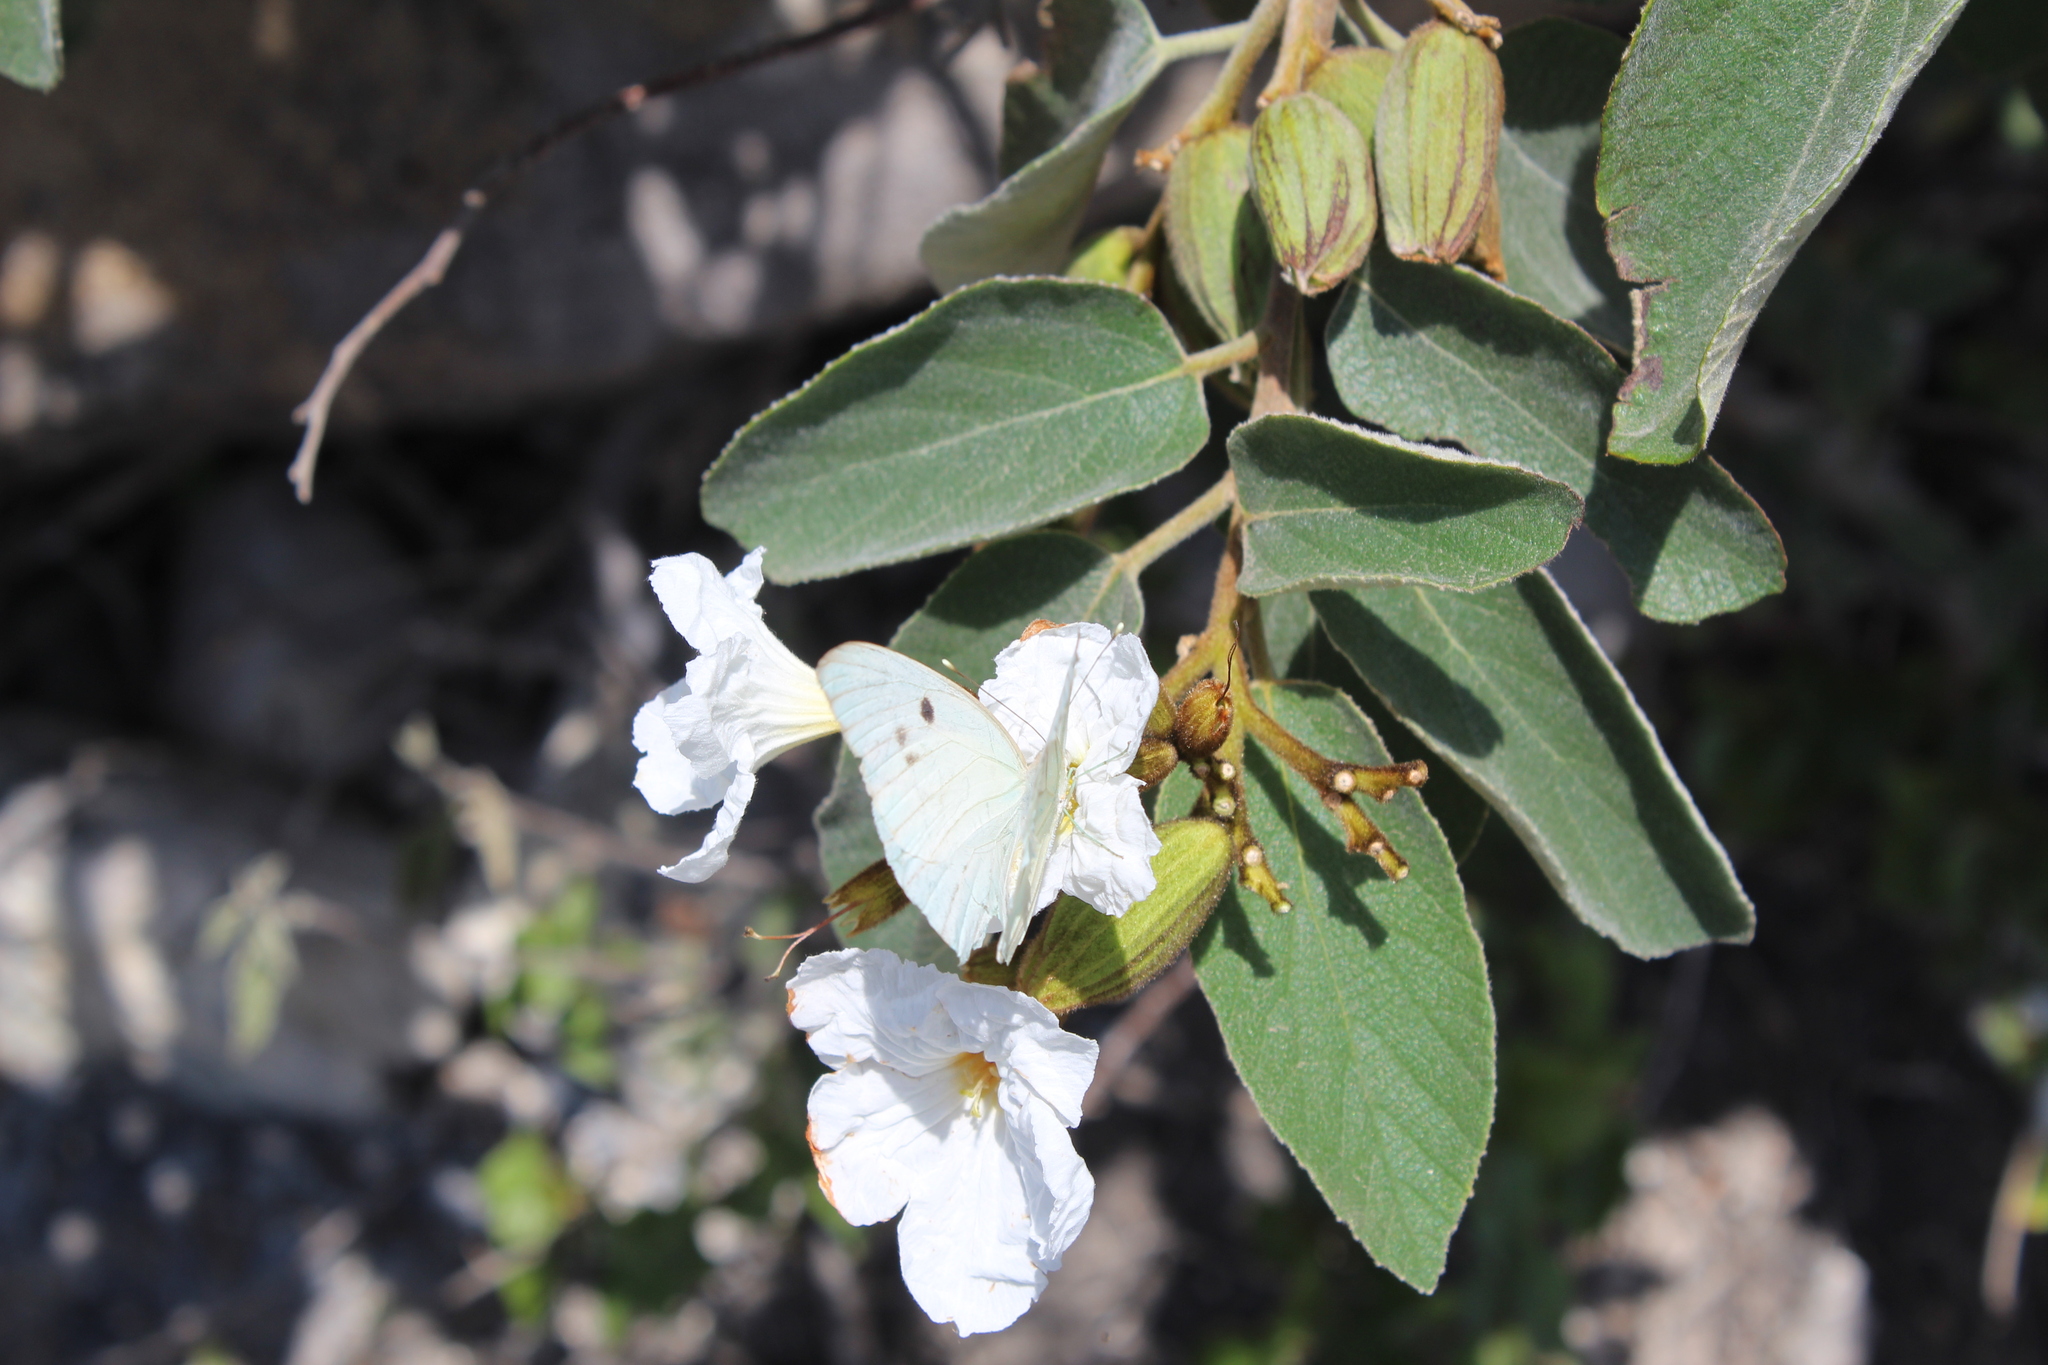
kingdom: Animalia
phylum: Arthropoda
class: Insecta
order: Lepidoptera
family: Pieridae
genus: Ganyra
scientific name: Ganyra josephina
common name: Giant white
